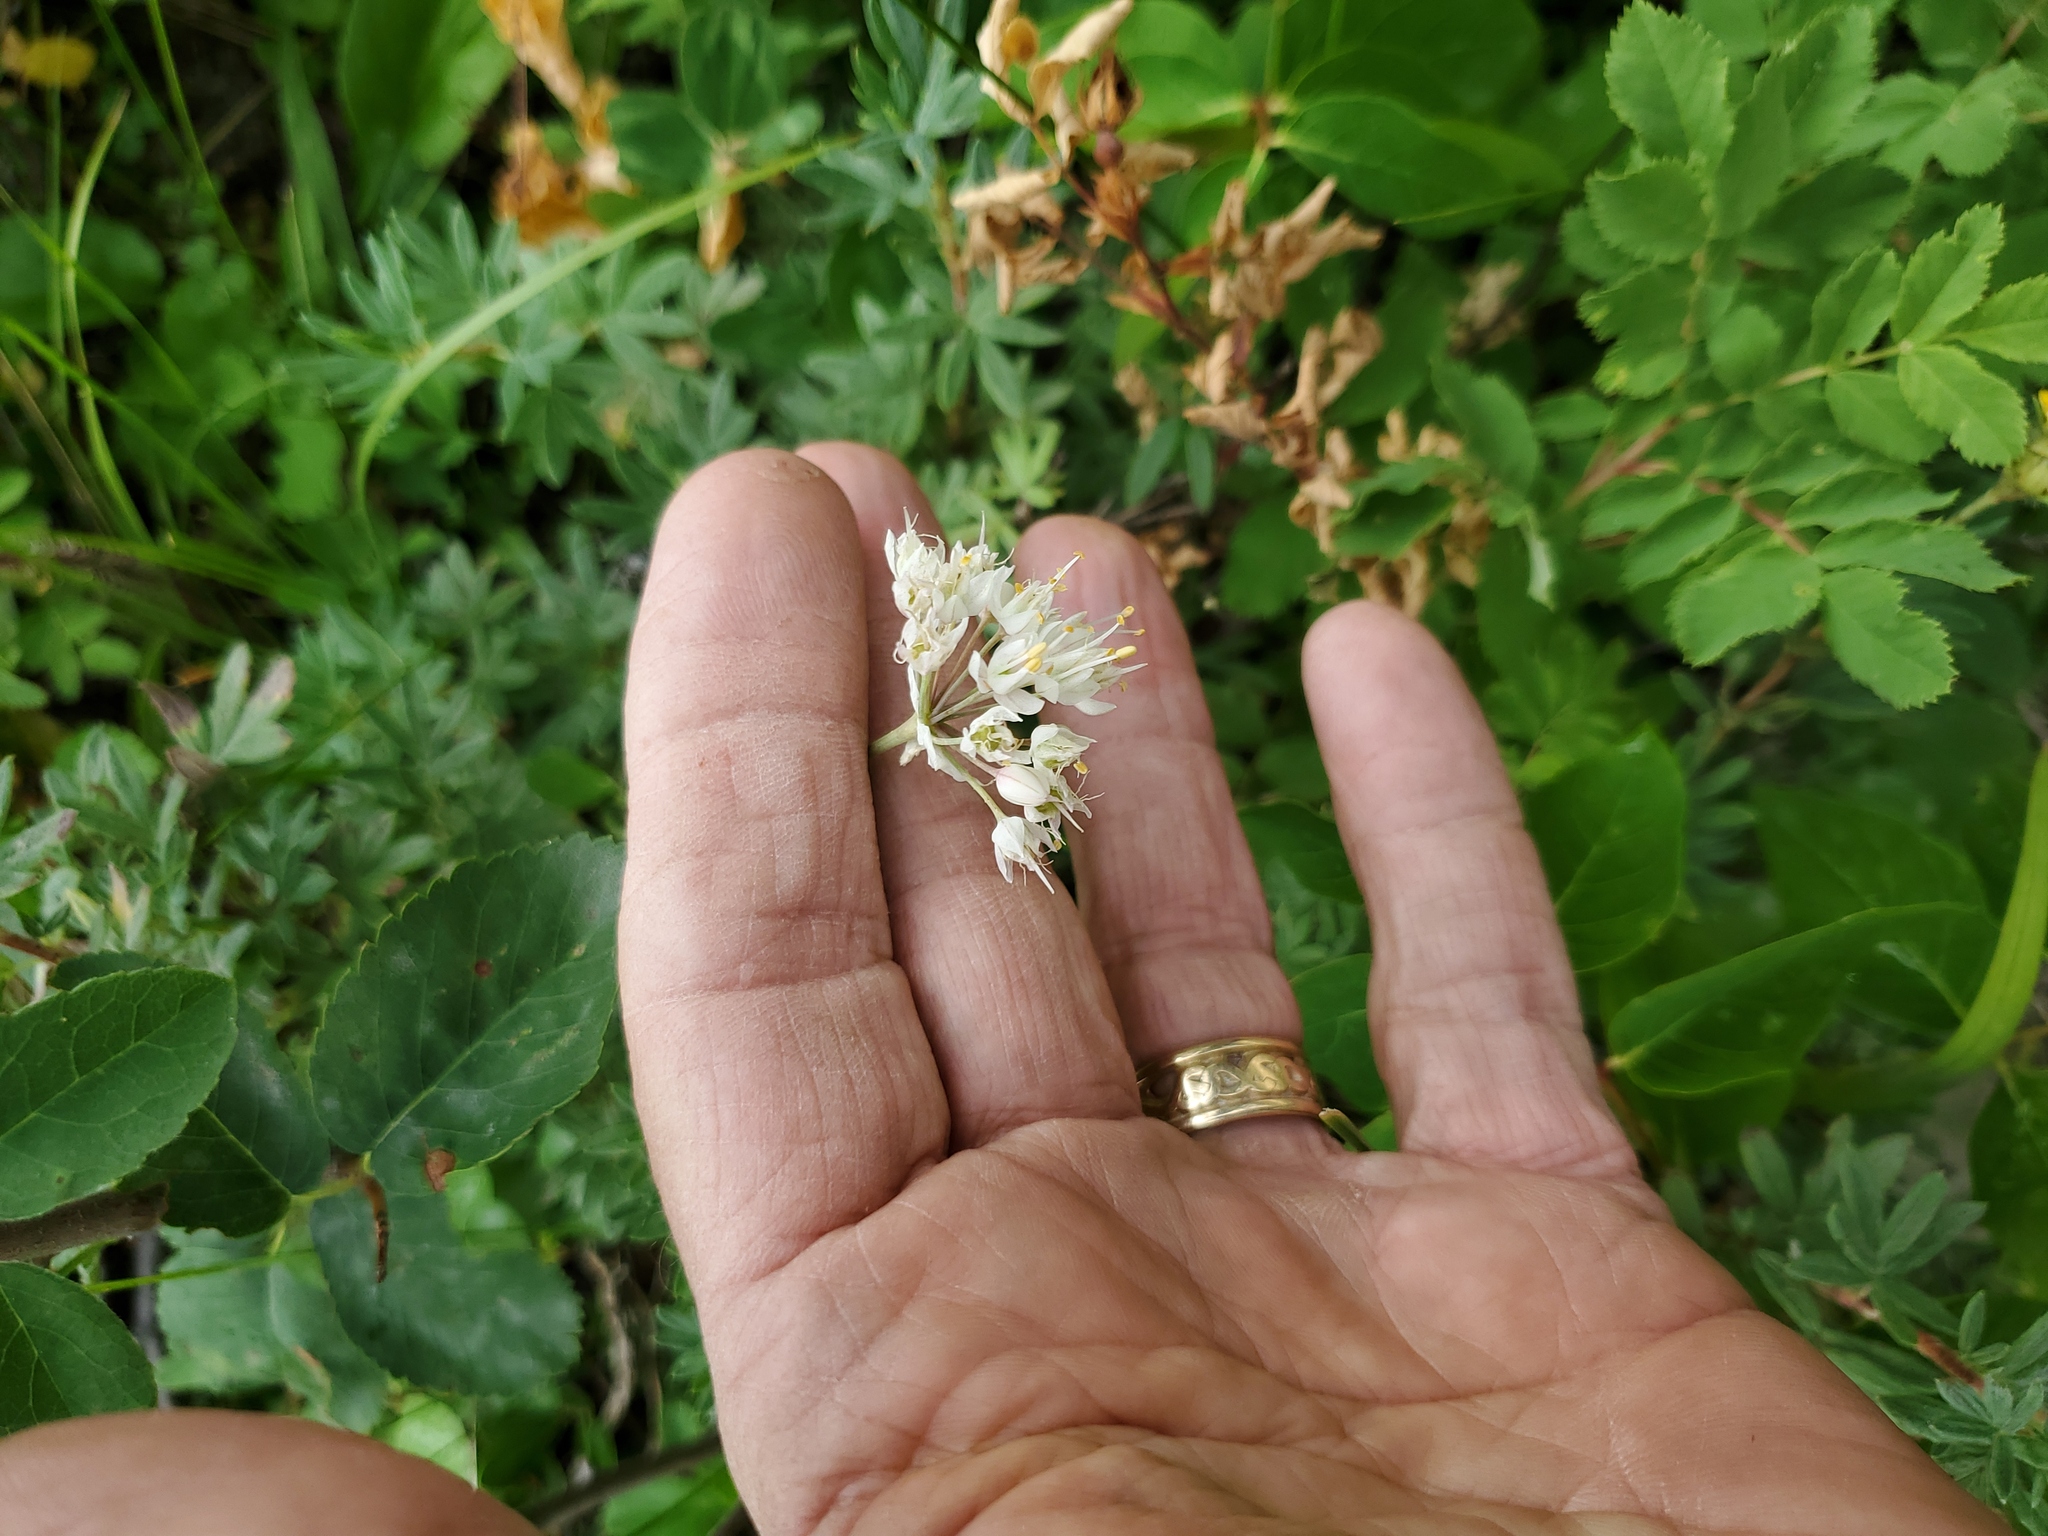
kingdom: Plantae
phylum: Tracheophyta
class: Liliopsida
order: Asparagales
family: Amaryllidaceae
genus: Allium
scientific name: Allium cernuum
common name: Nodding onion
